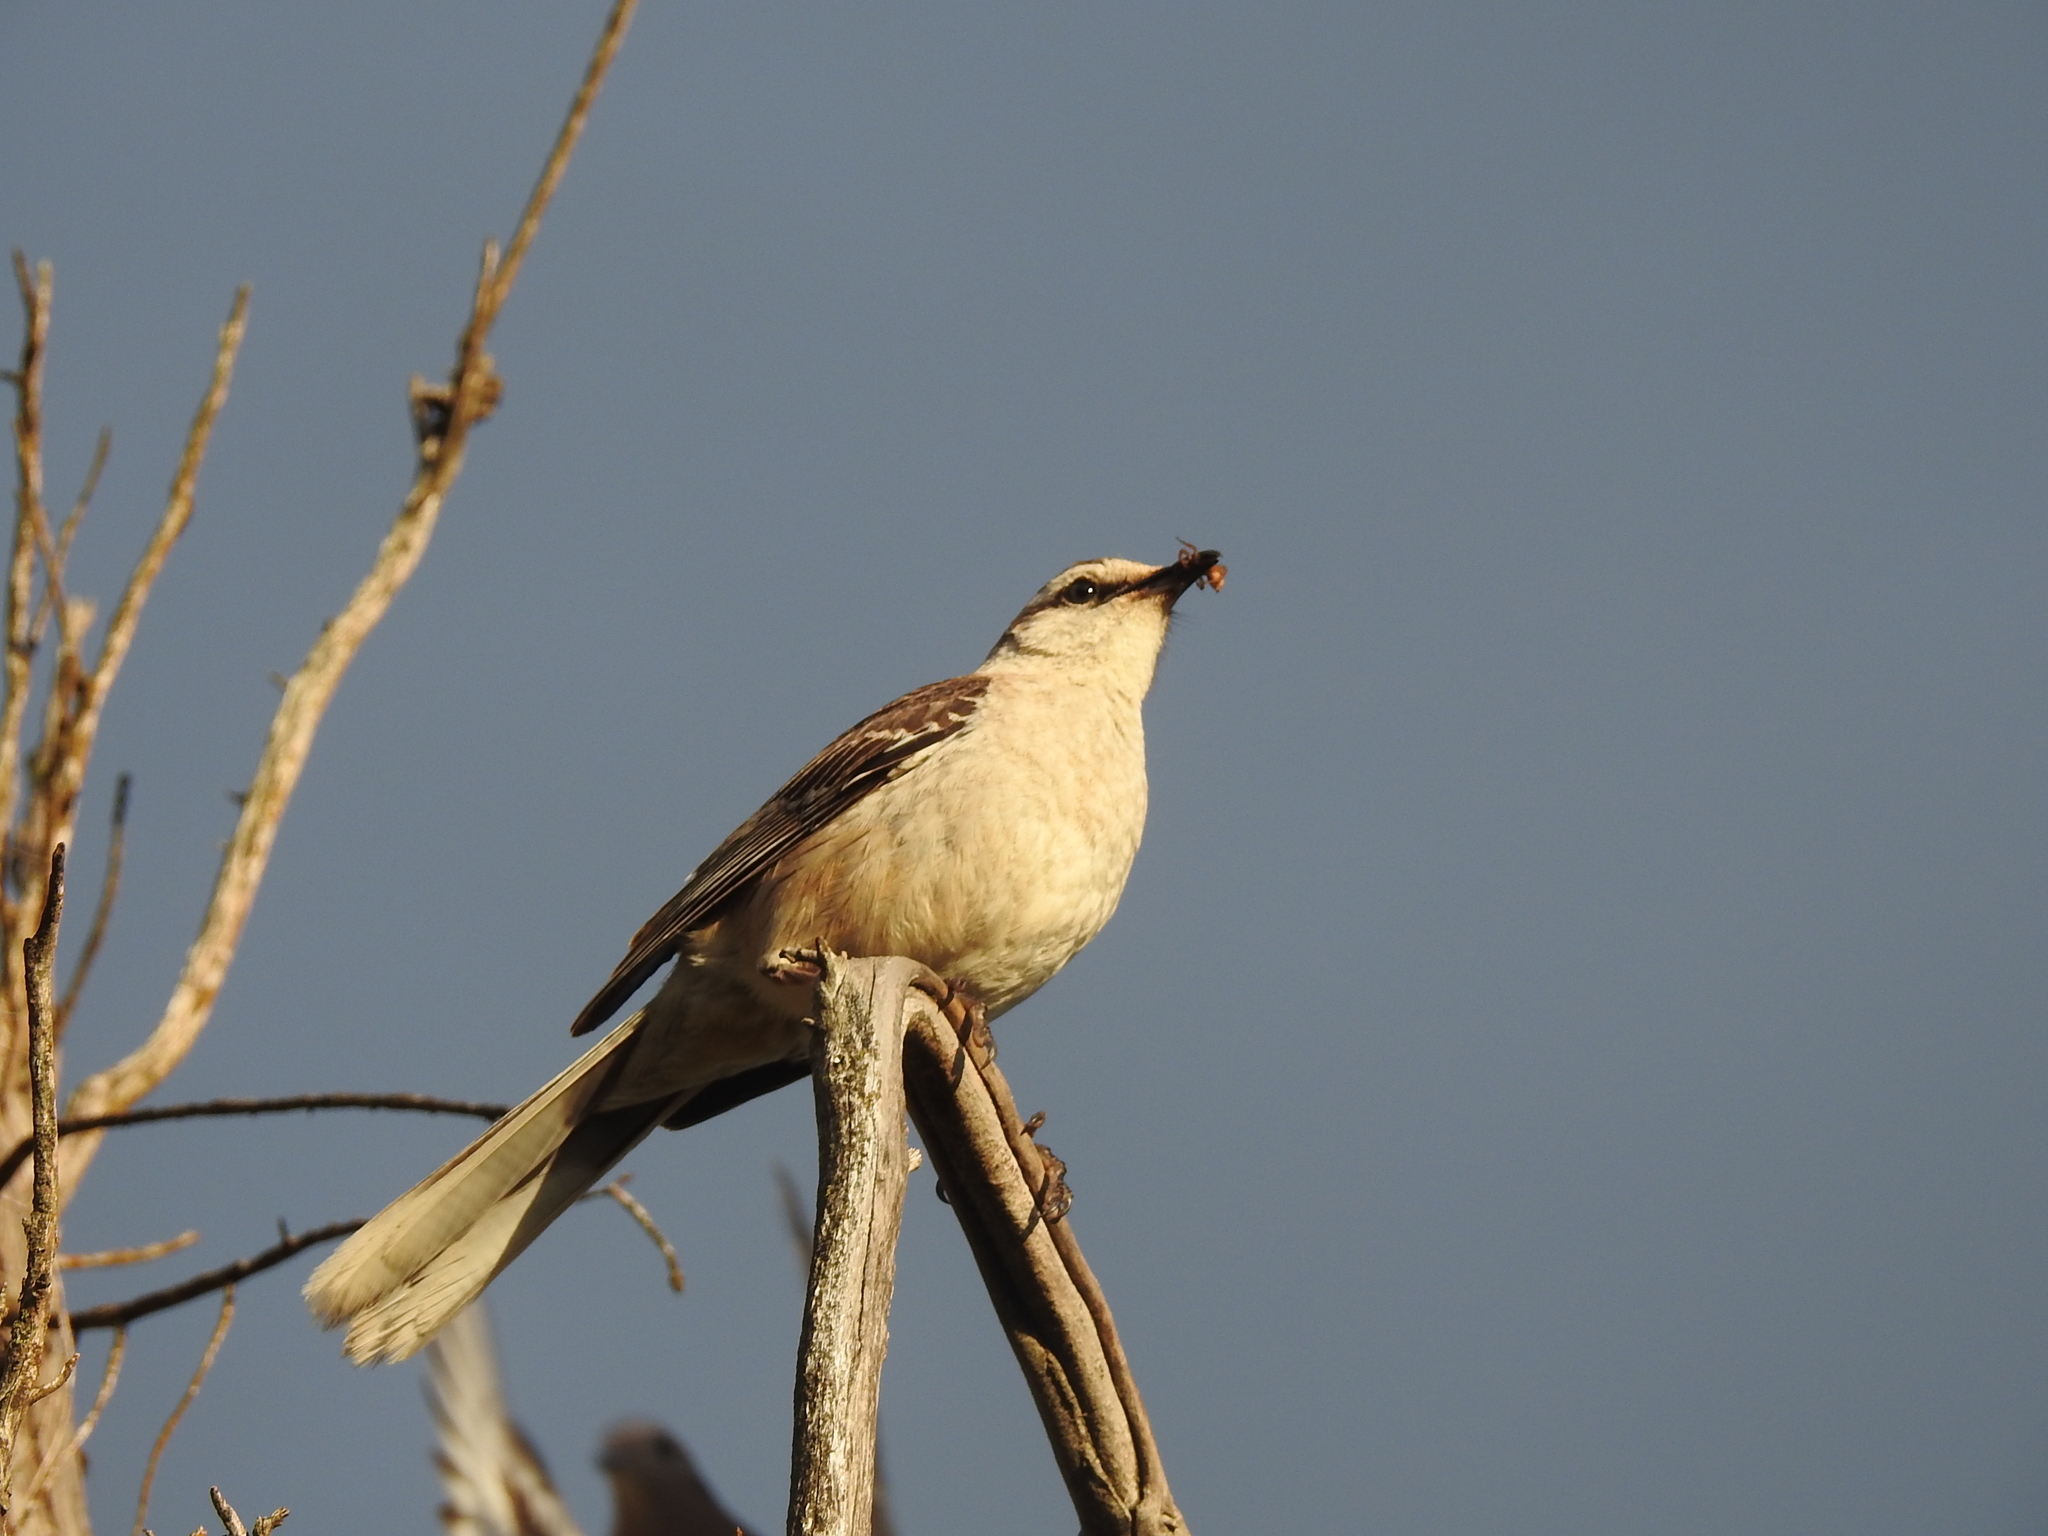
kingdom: Animalia
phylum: Chordata
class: Aves
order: Passeriformes
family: Mimidae
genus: Mimus
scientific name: Mimus saturninus
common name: Chalk-browed mockingbird
